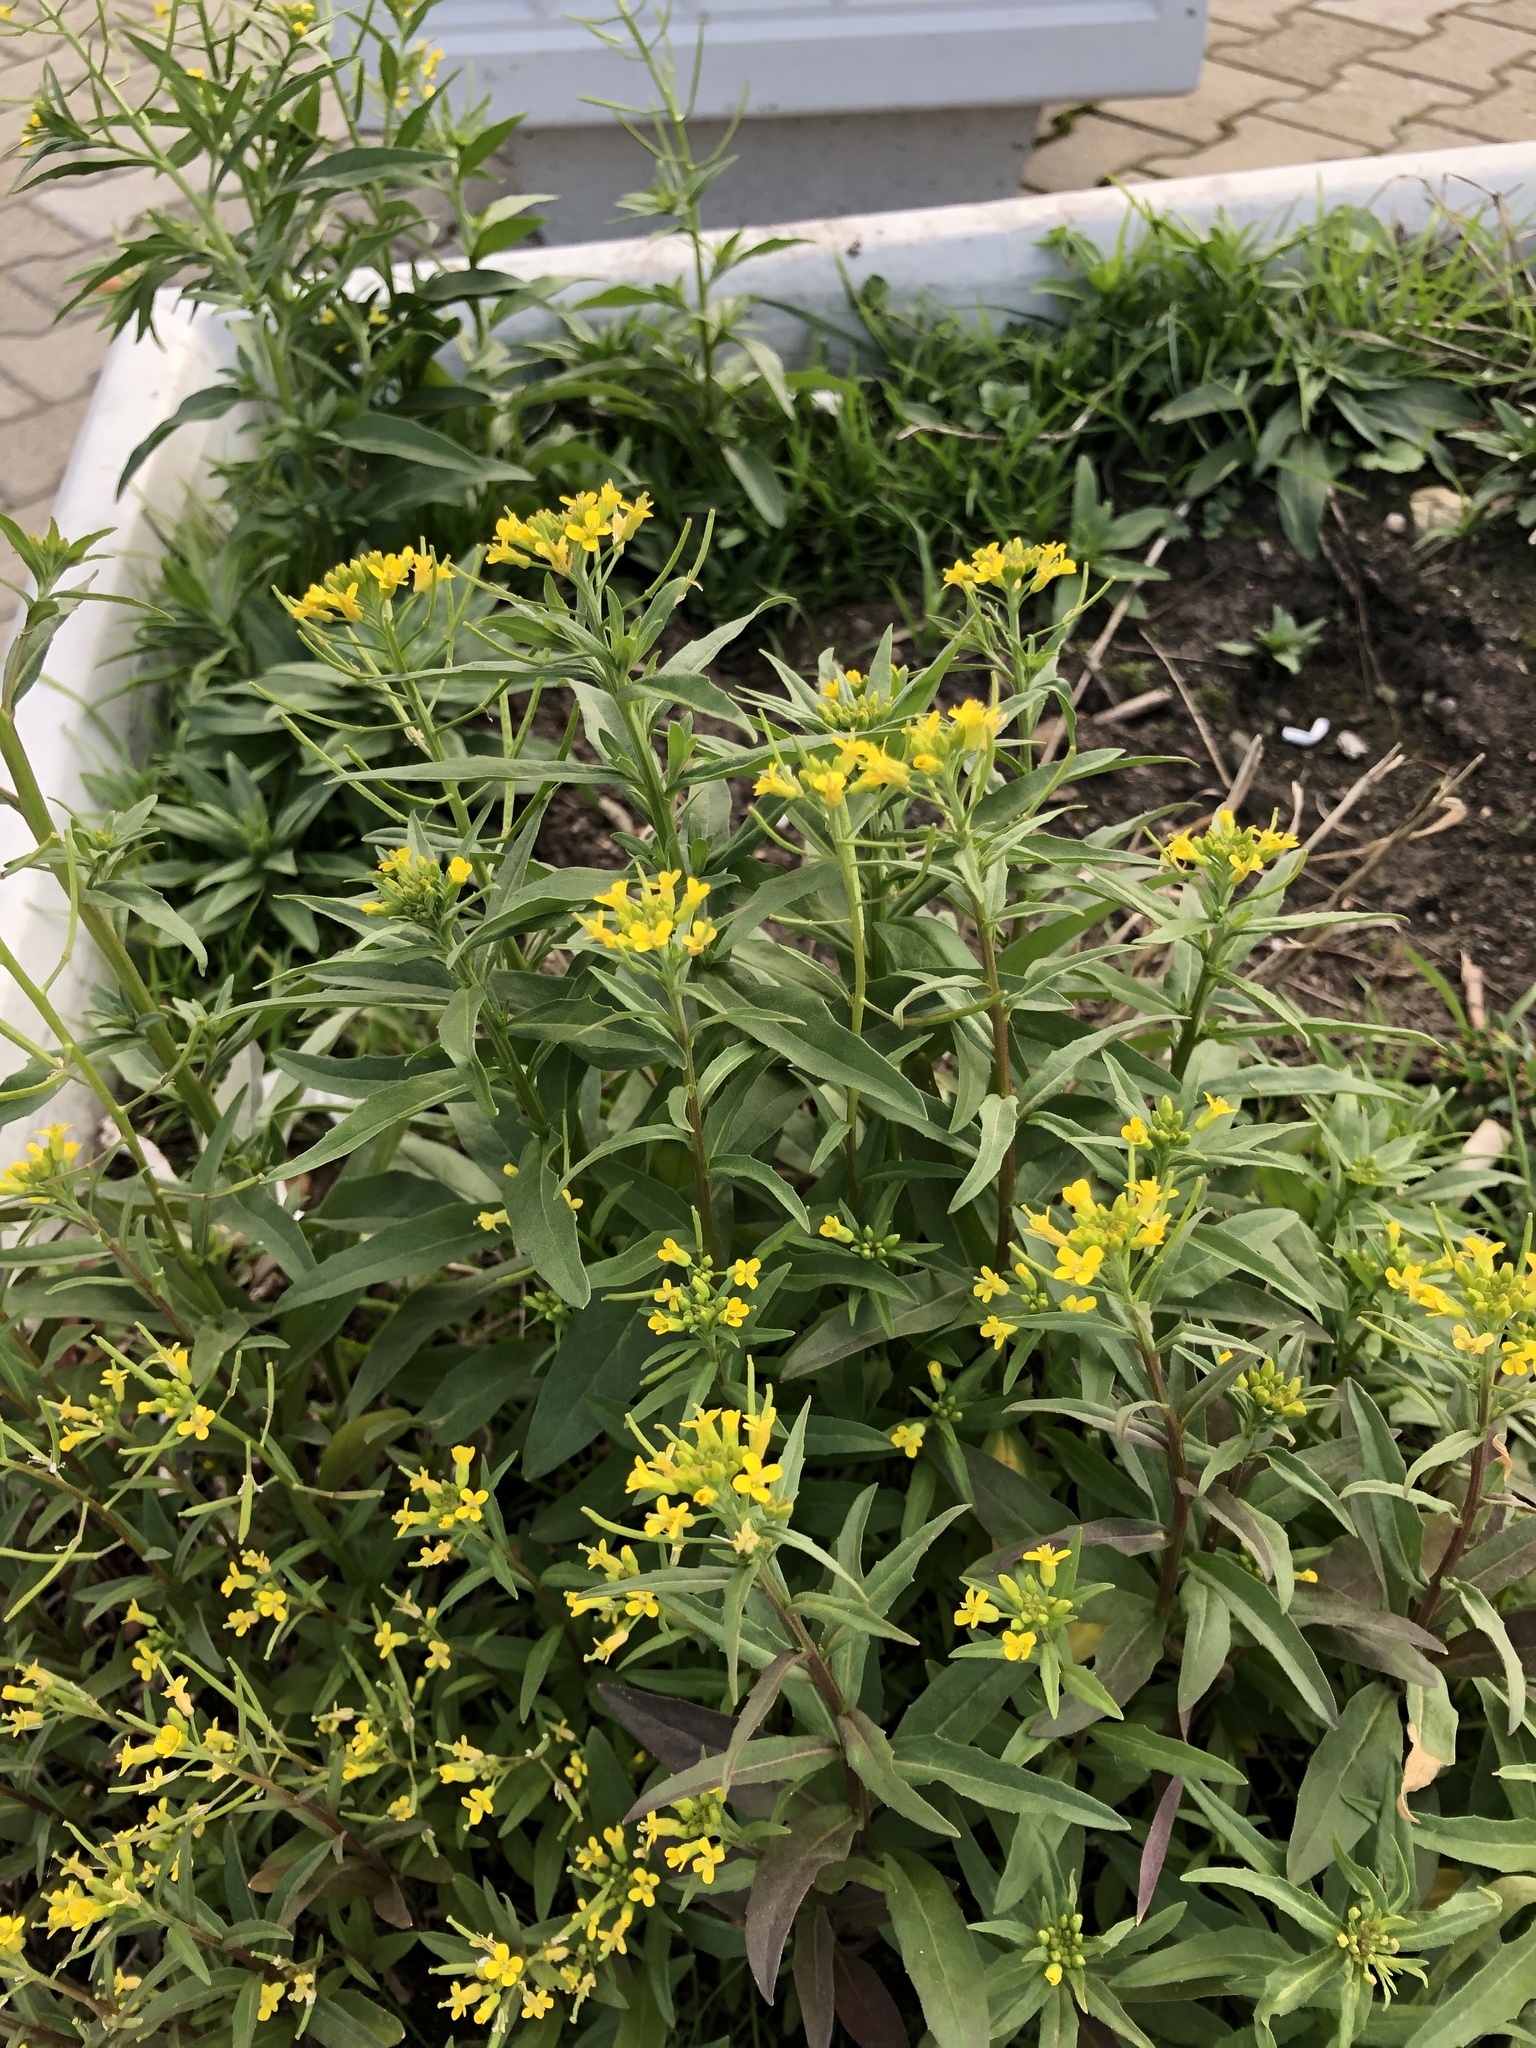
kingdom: Plantae
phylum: Tracheophyta
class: Magnoliopsida
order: Brassicales
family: Brassicaceae
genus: Erysimum
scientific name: Erysimum cheiranthoides
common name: Treacle mustard
